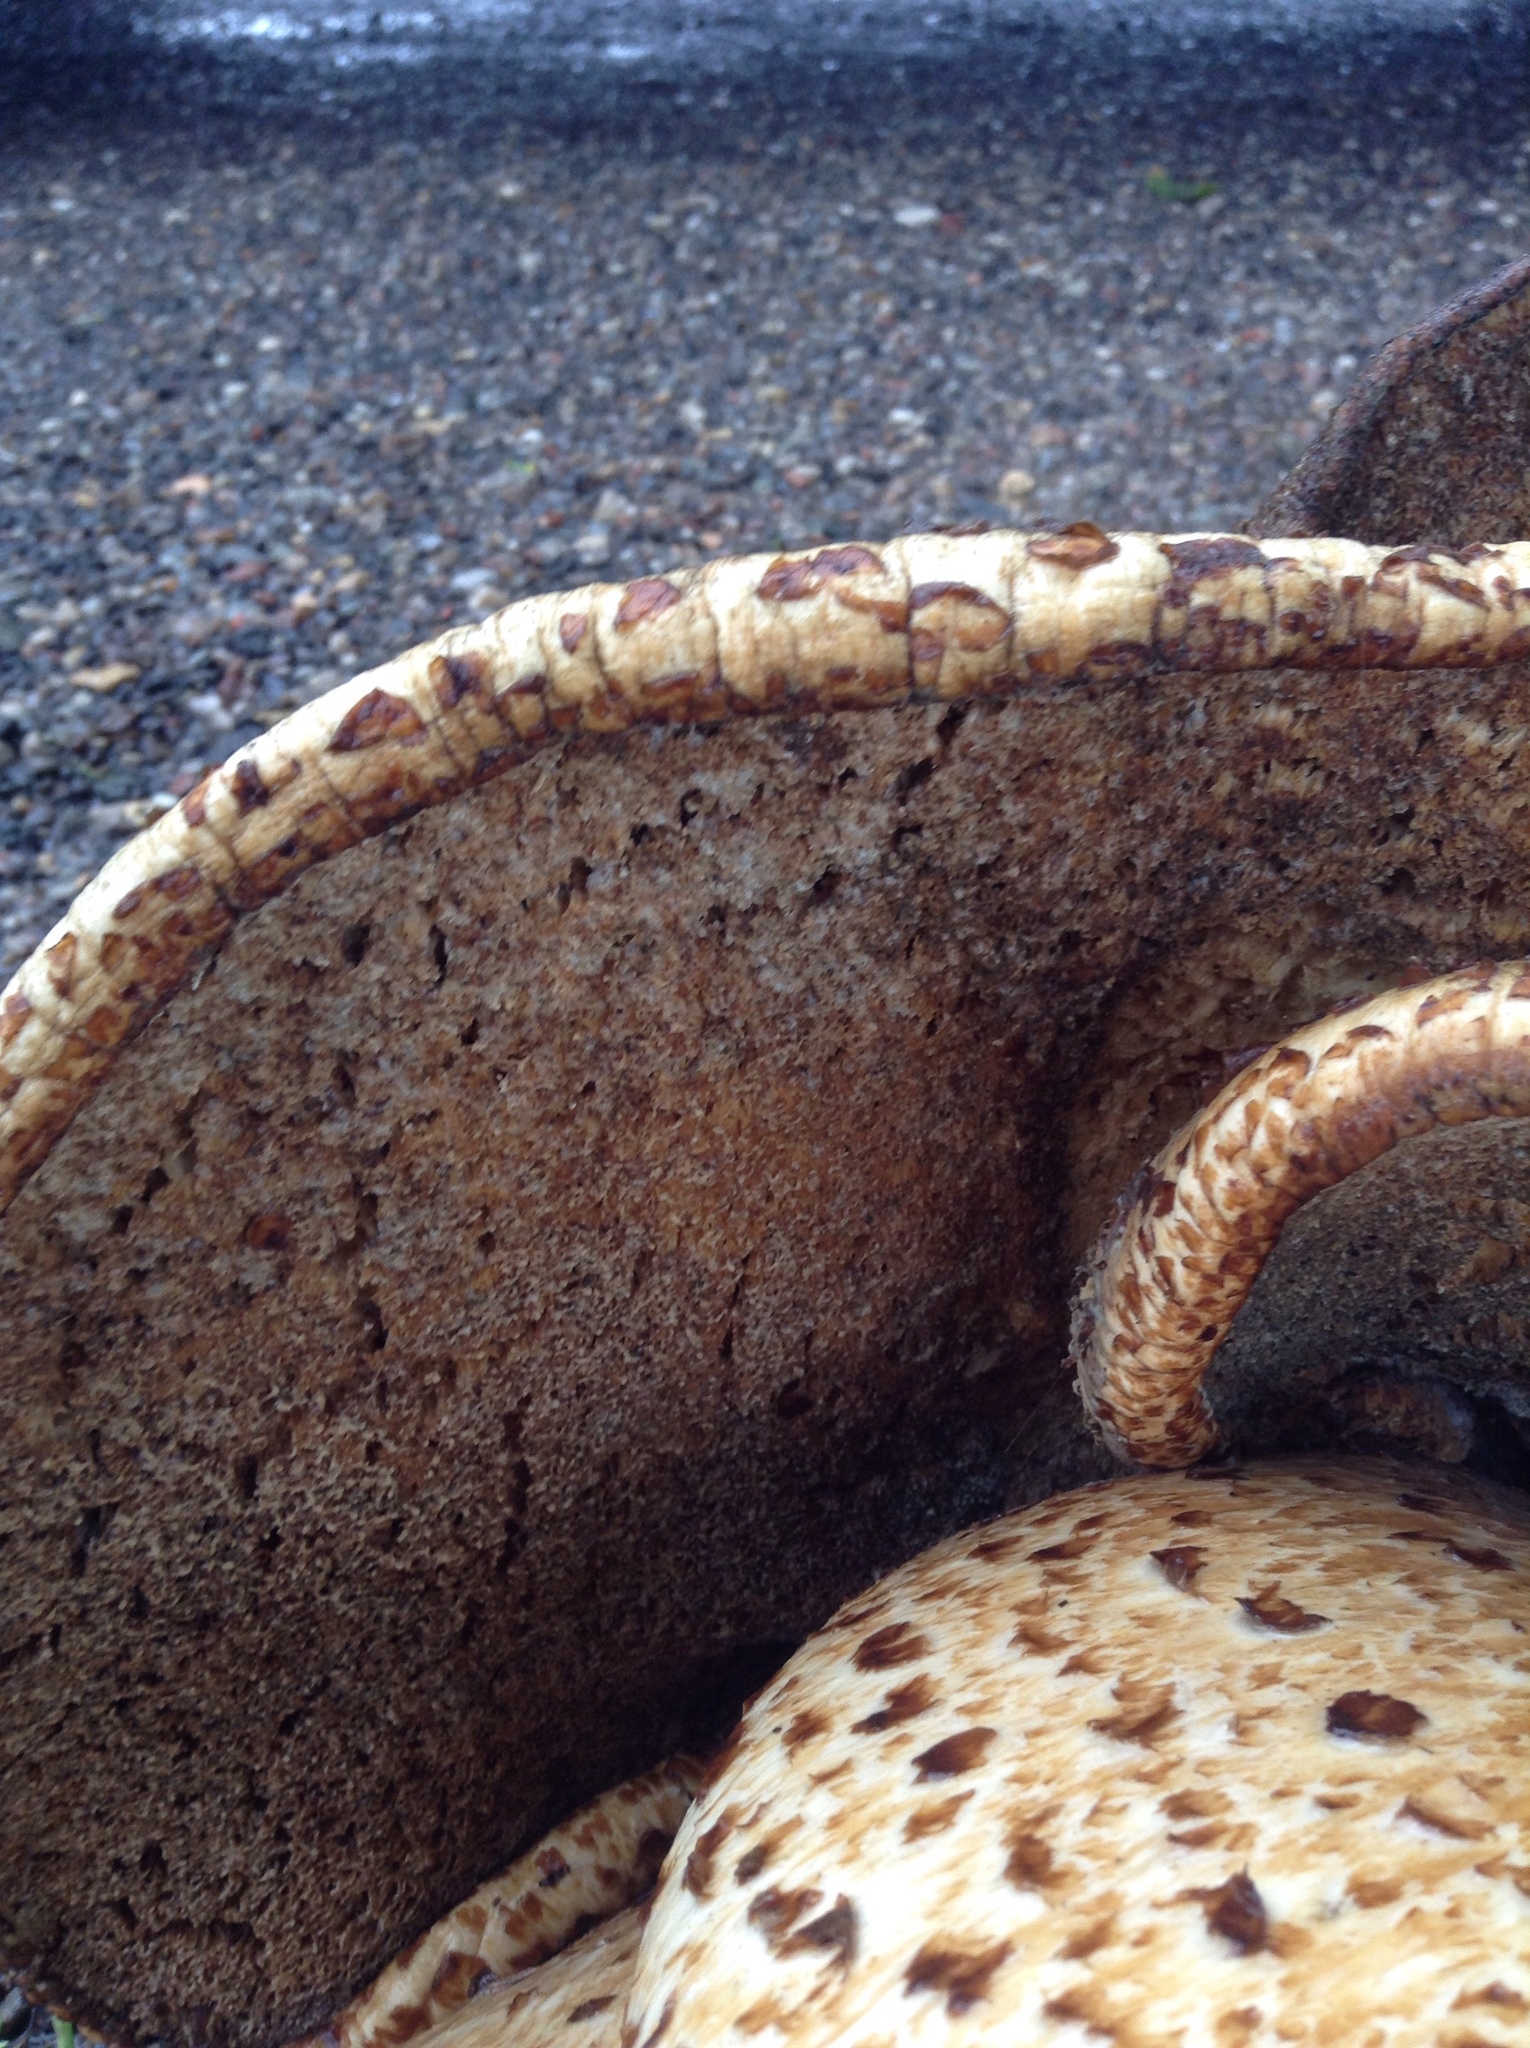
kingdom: Fungi
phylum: Basidiomycota
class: Agaricomycetes
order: Polyporales
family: Polyporaceae
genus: Cerioporus
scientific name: Cerioporus squamosus
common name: Dryad's saddle
